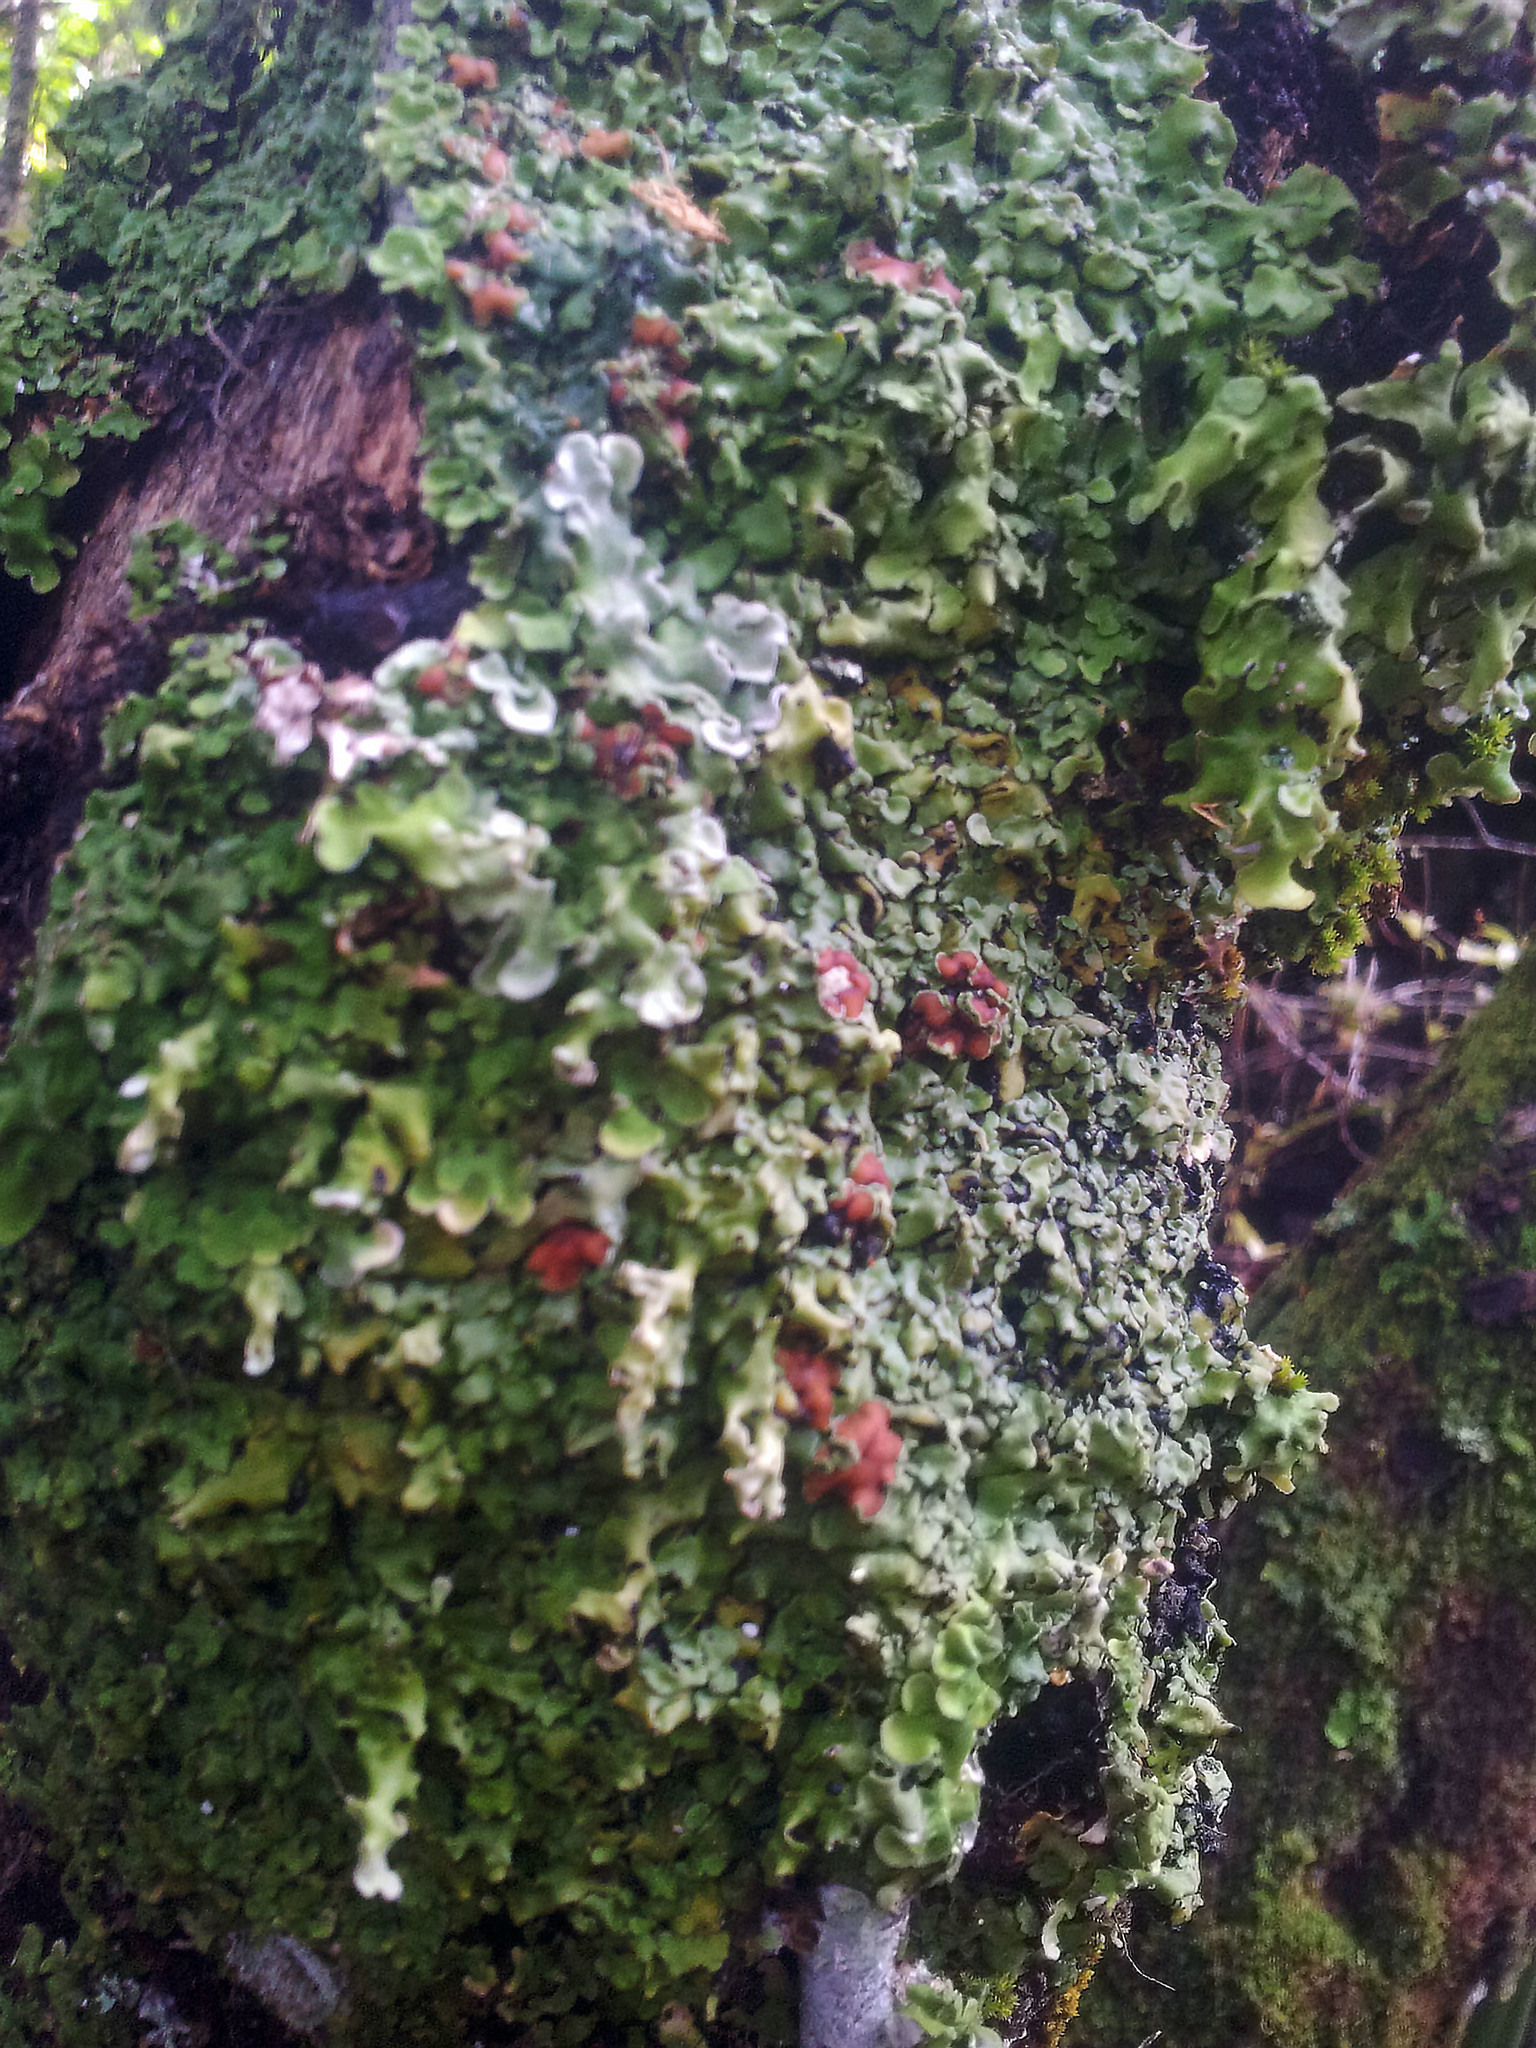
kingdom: Fungi
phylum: Ascomycota
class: Lecanoromycetes
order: Peltigerales
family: Pannariaceae
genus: Pannaria
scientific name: Pannaria
